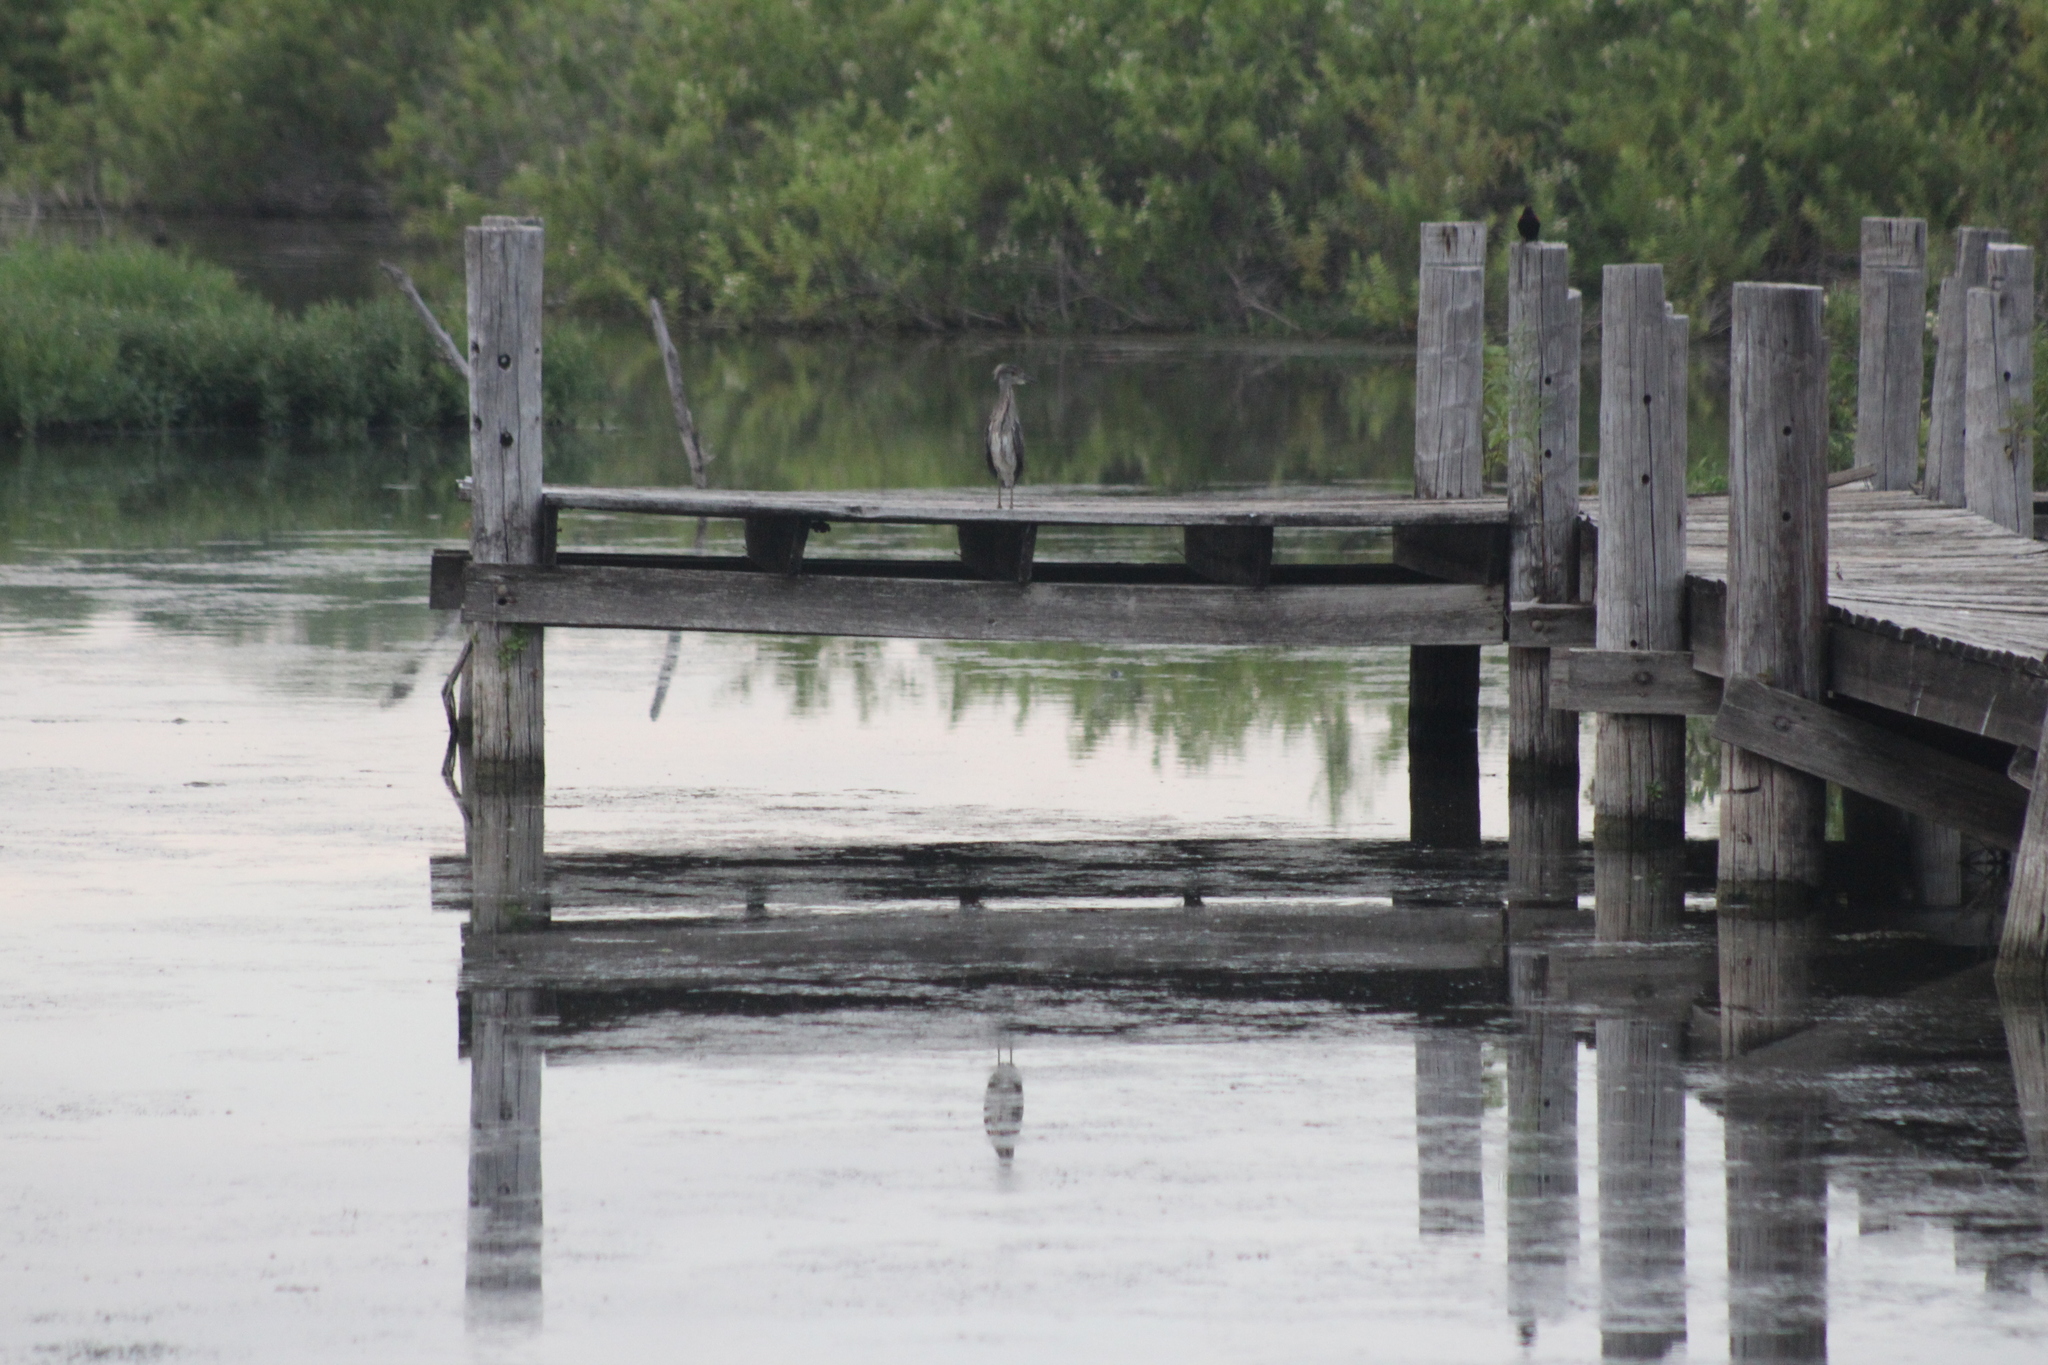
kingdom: Animalia
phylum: Chordata
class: Aves
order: Pelecaniformes
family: Ardeidae
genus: Nyctanassa
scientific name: Nyctanassa violacea
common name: Yellow-crowned night heron
